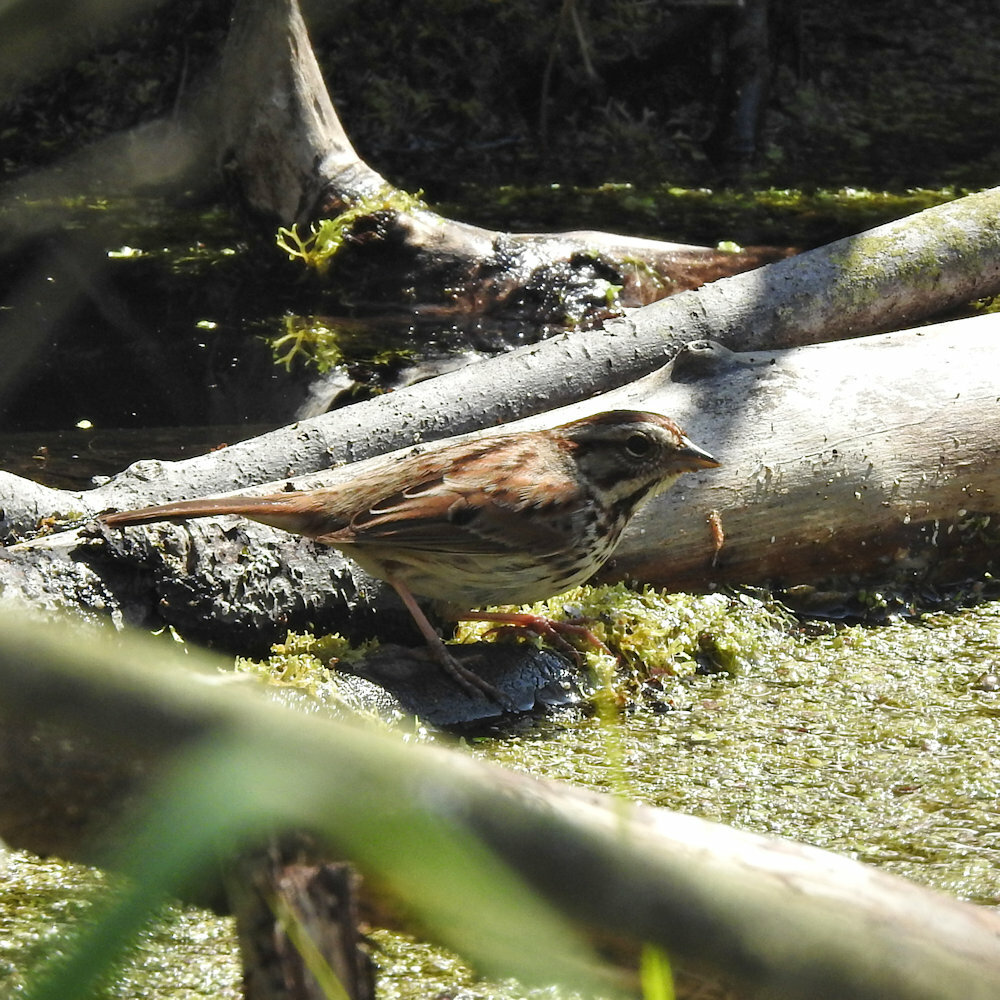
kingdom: Animalia
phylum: Chordata
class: Aves
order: Passeriformes
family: Passerellidae
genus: Melospiza
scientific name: Melospiza melodia
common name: Song sparrow
